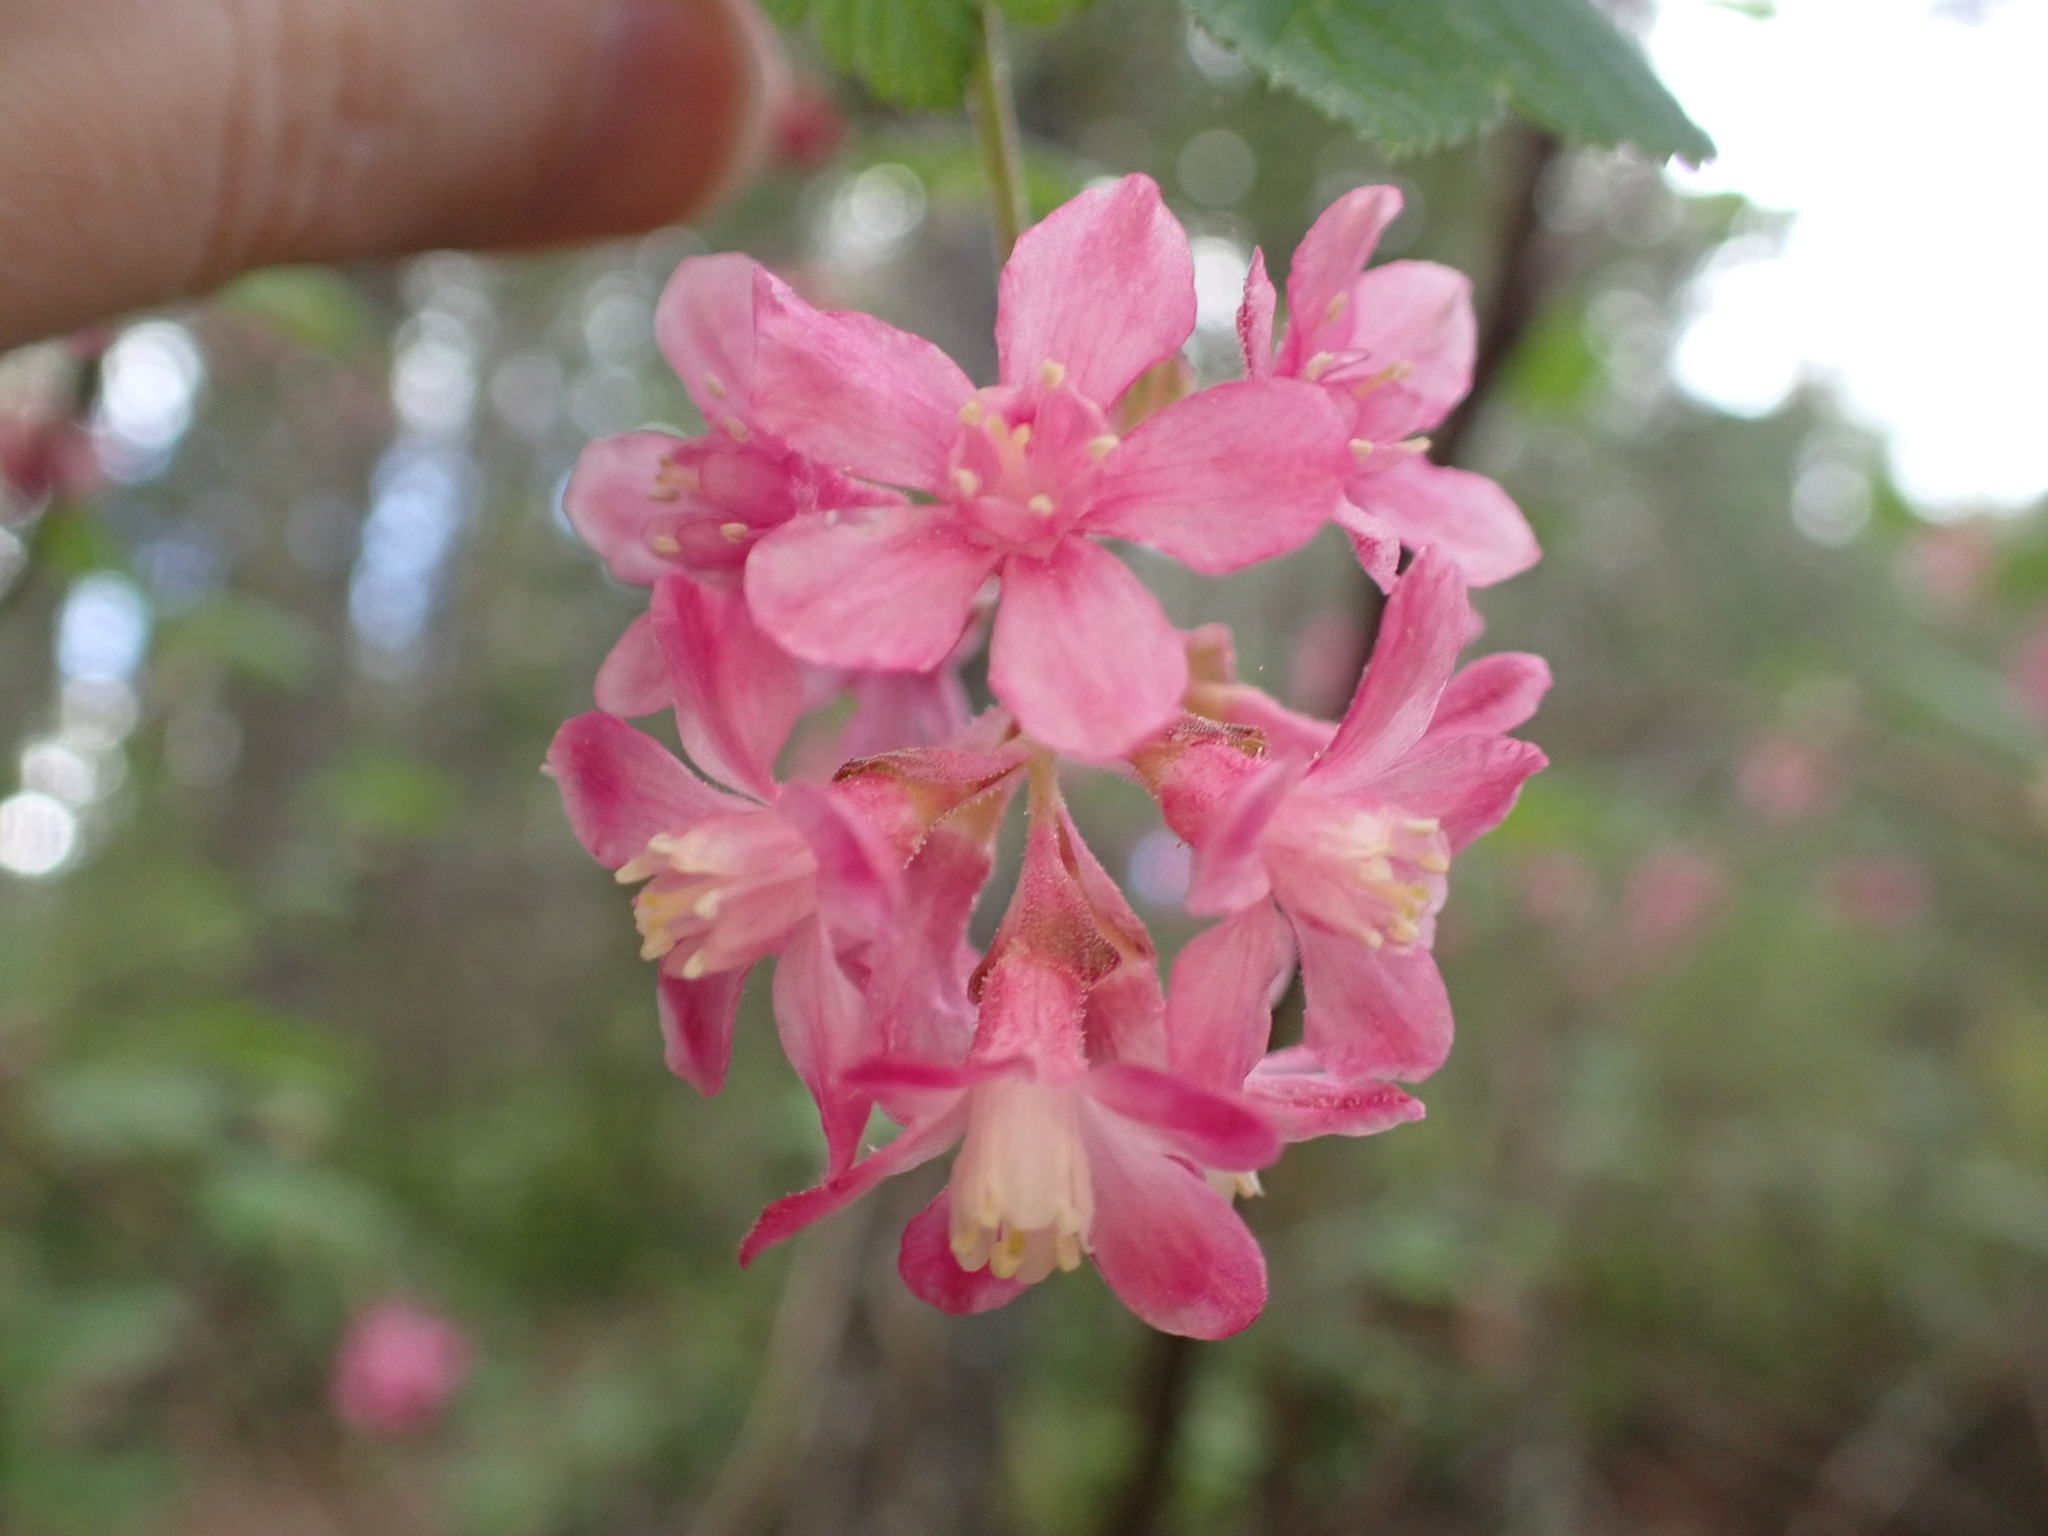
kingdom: Plantae
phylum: Tracheophyta
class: Magnoliopsida
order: Saxifragales
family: Grossulariaceae
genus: Ribes
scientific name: Ribes sanguineum
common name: Flowering currant
